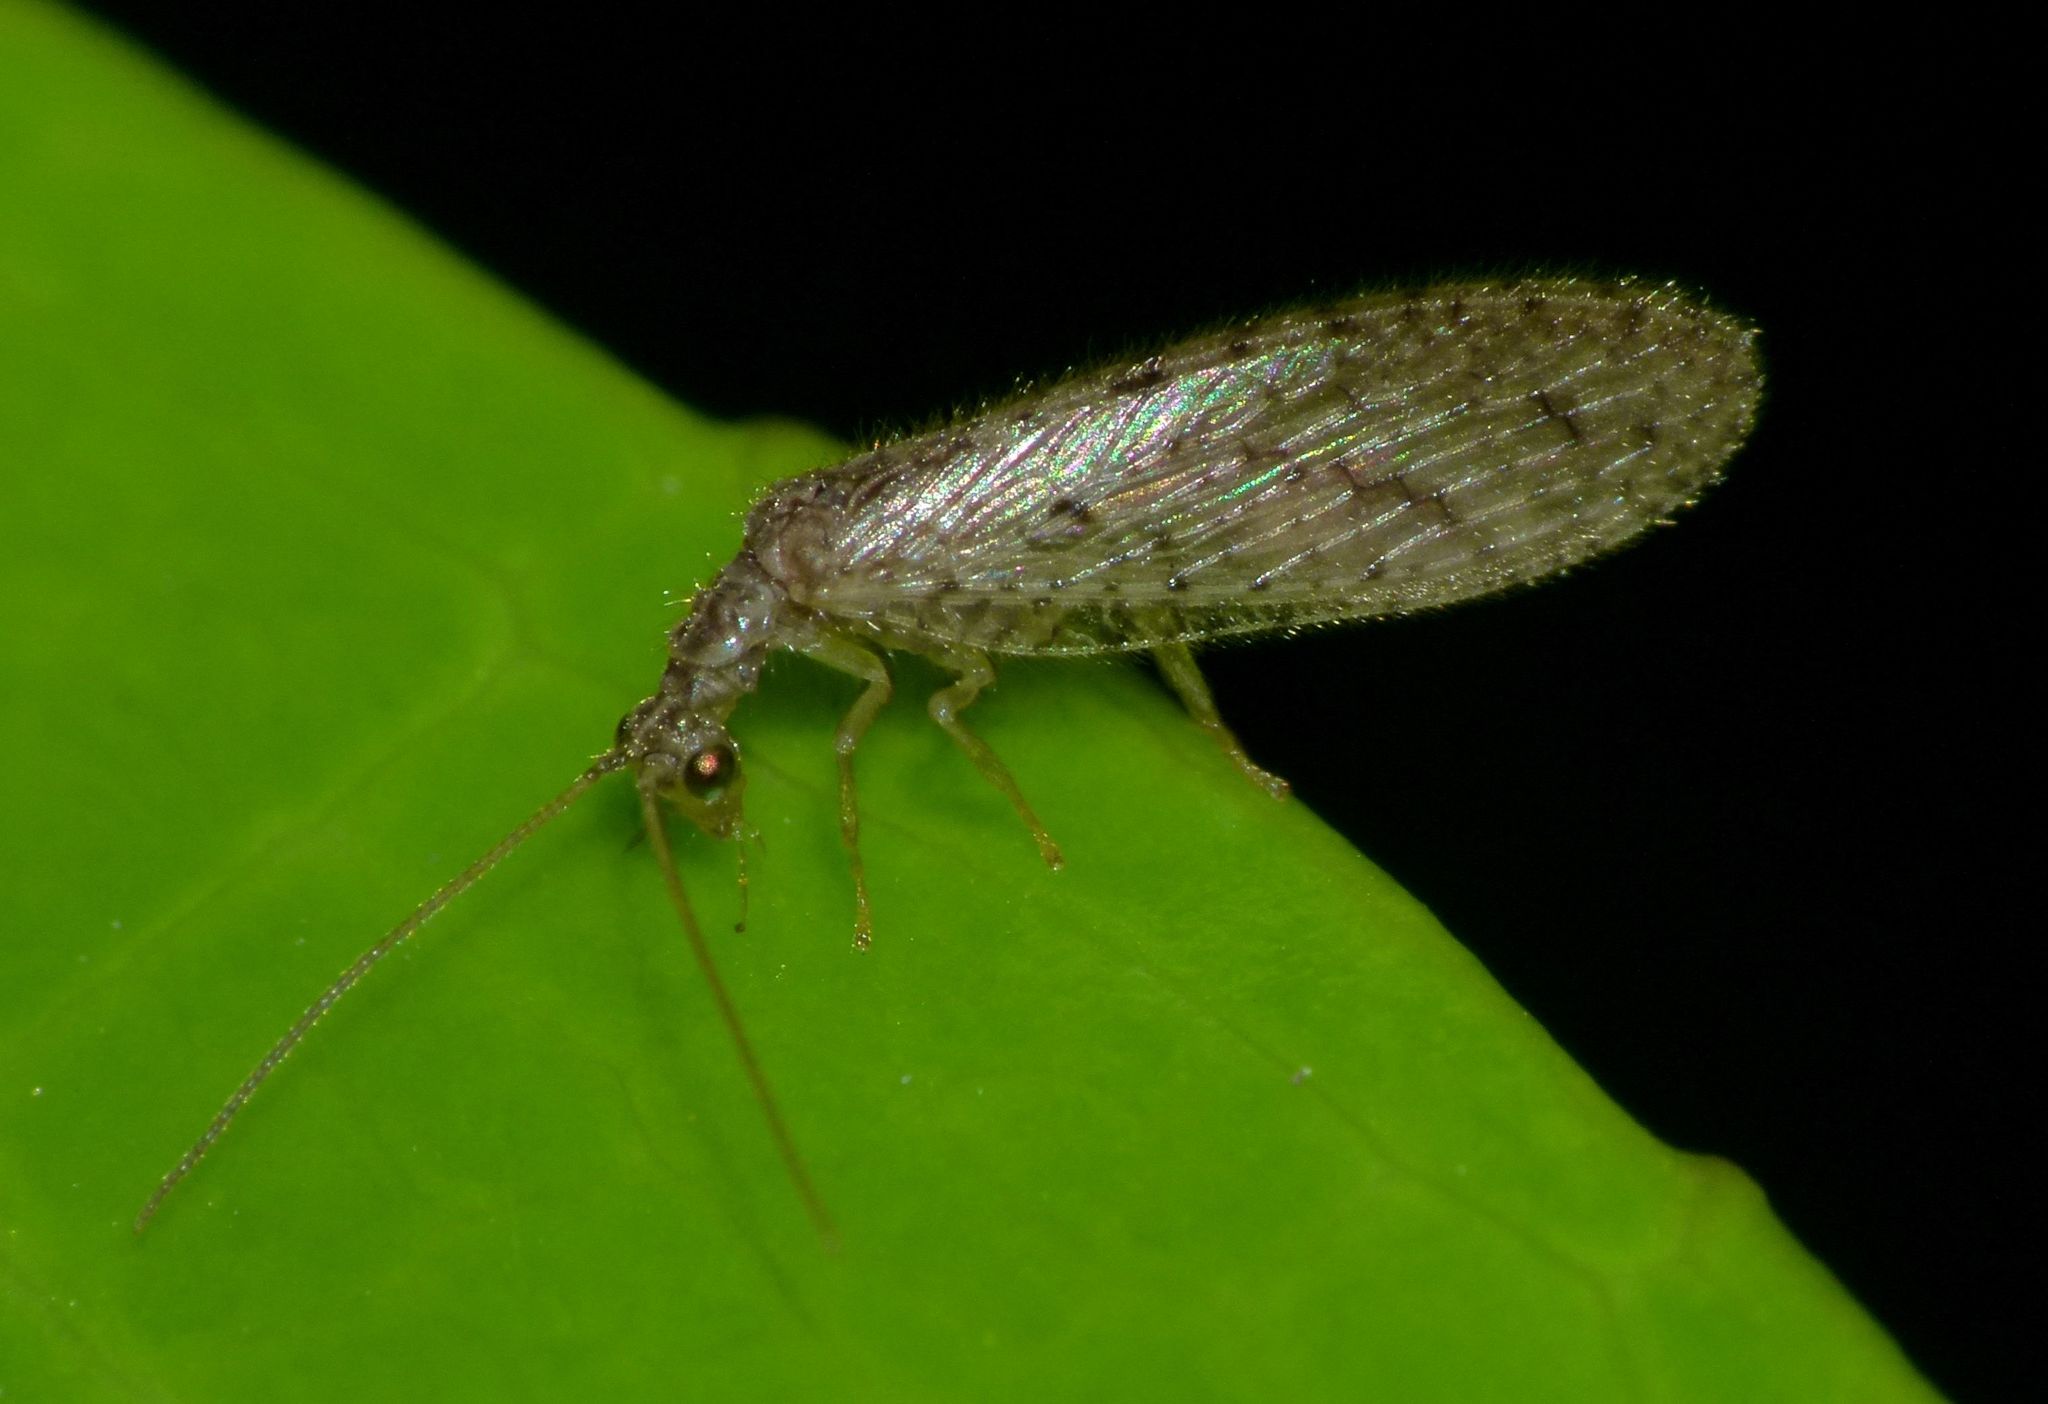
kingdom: Animalia
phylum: Arthropoda
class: Insecta
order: Neuroptera
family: Hemerobiidae
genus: Micromus
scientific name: Micromus tasmaniae
